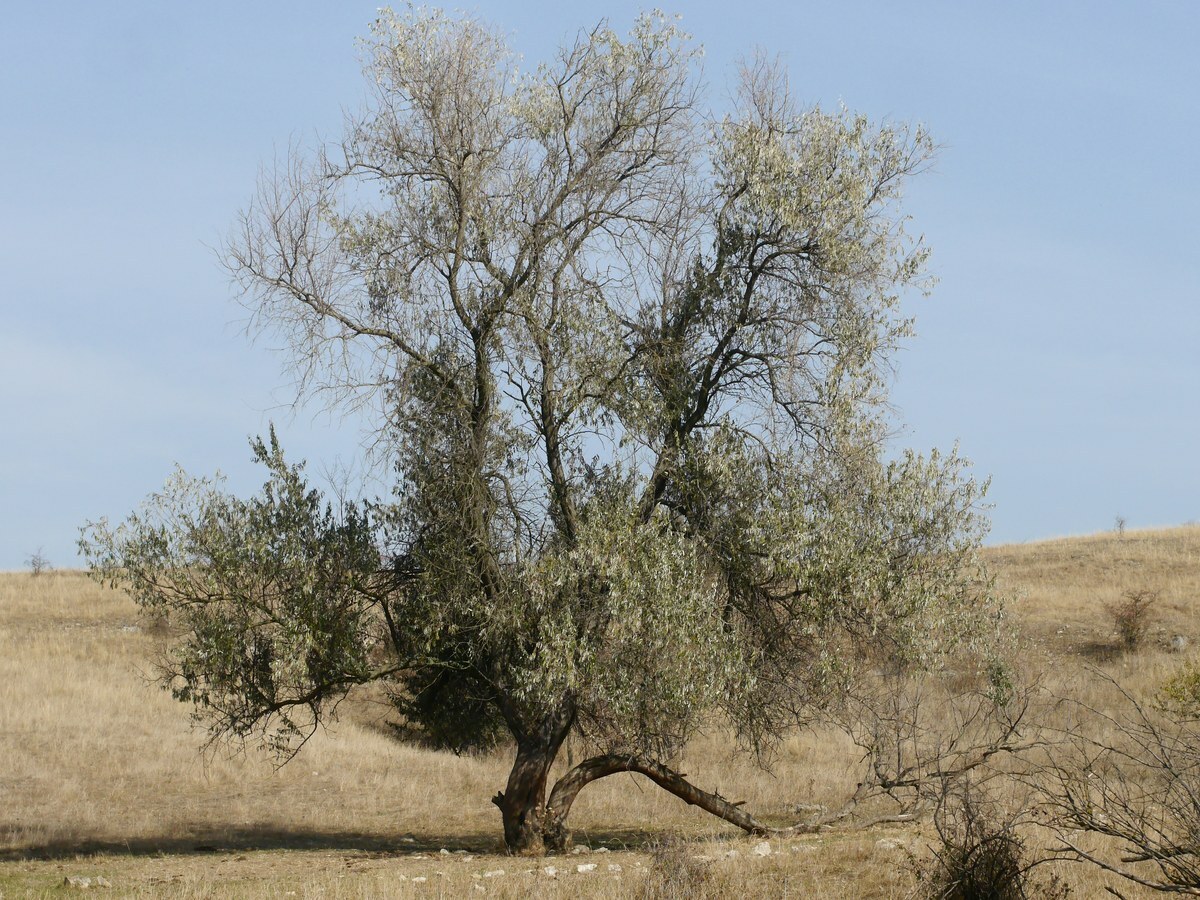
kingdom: Plantae
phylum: Tracheophyta
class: Magnoliopsida
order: Rosales
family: Elaeagnaceae
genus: Elaeagnus
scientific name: Elaeagnus angustifolia
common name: Russian olive
